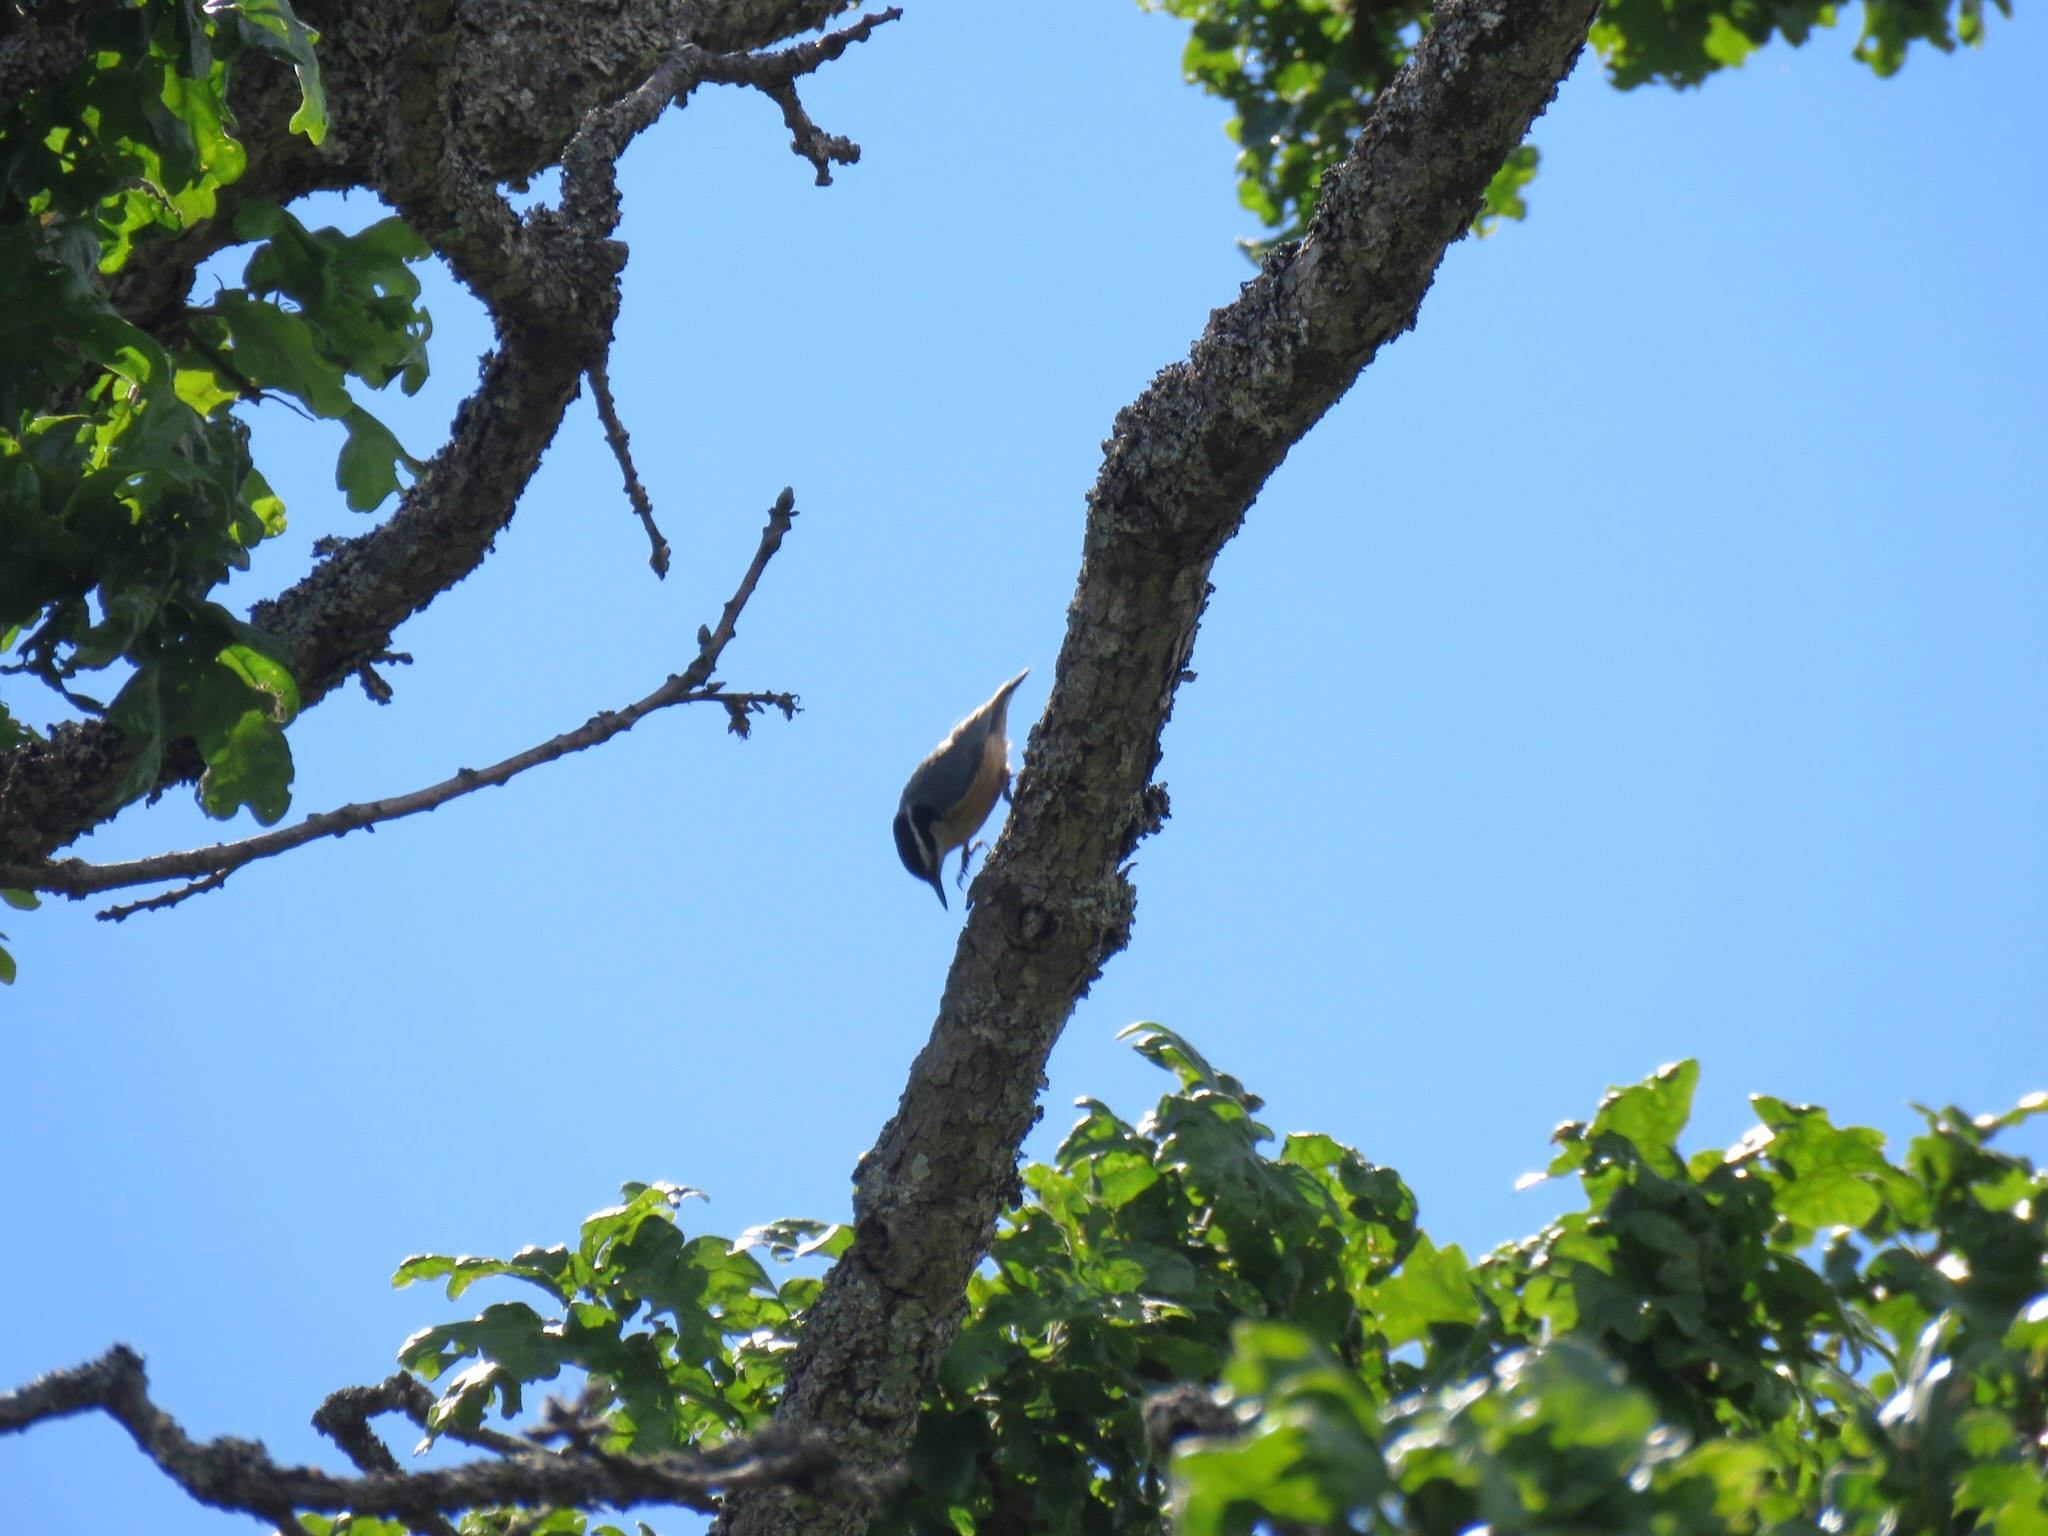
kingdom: Animalia
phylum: Chordata
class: Aves
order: Passeriformes
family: Sittidae
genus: Sitta
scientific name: Sitta canadensis
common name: Red-breasted nuthatch
